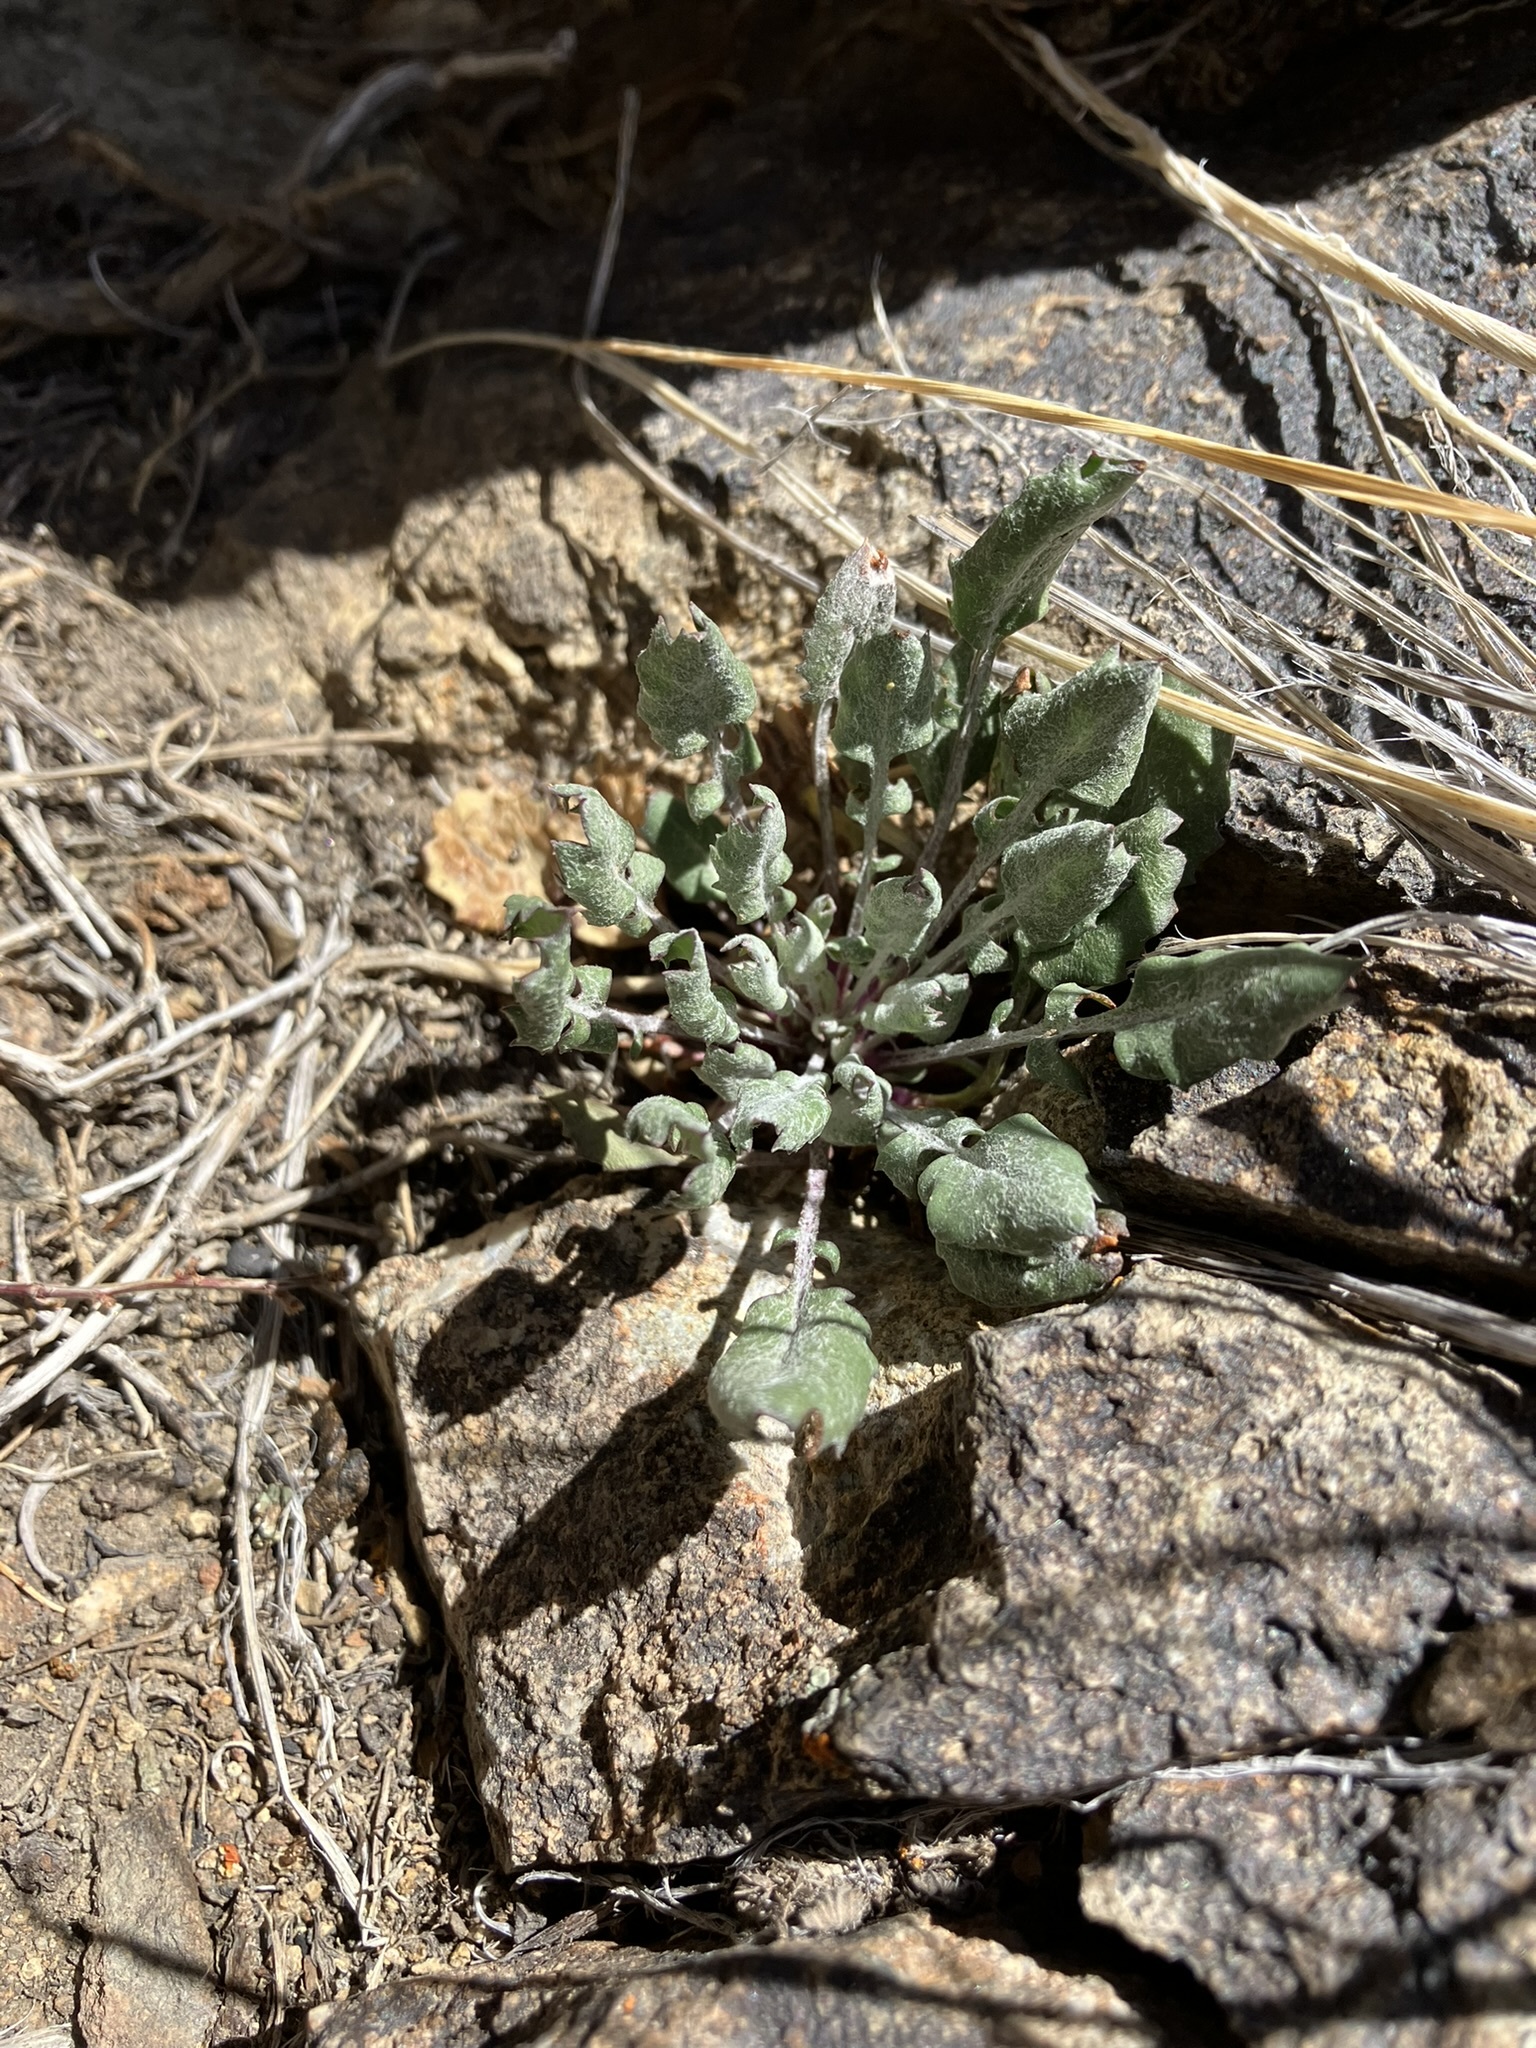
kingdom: Plantae
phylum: Tracheophyta
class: Magnoliopsida
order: Asterales
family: Asteraceae
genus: Packera
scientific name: Packera multilobata
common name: Lobe-leaf groundsel
